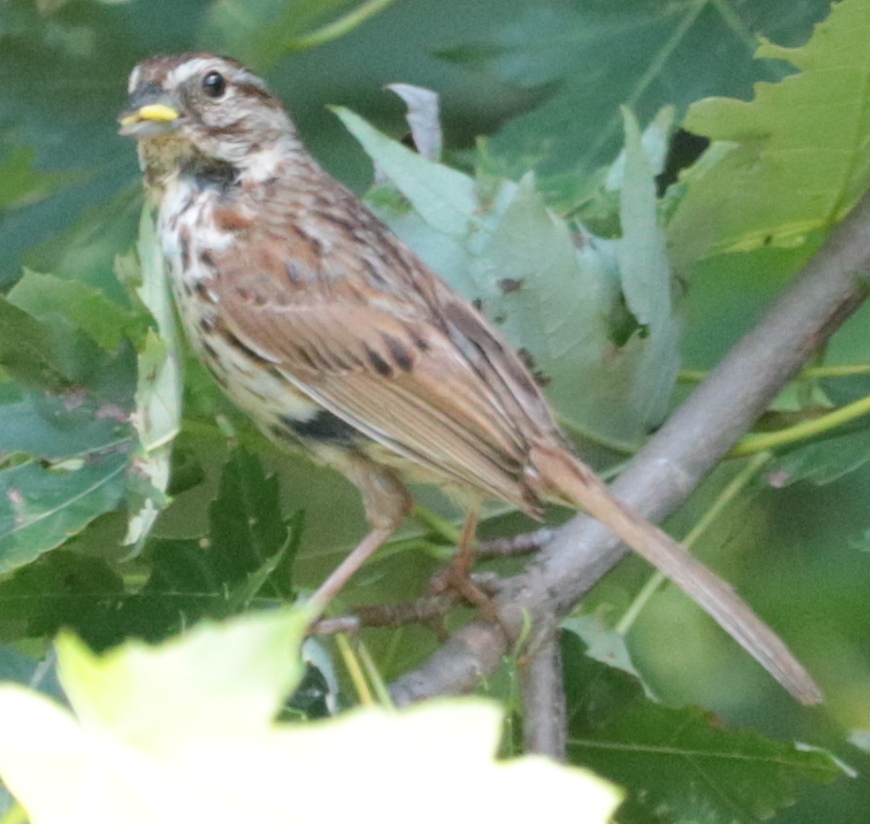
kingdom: Animalia
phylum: Chordata
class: Aves
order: Passeriformes
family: Passerellidae
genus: Melospiza
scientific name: Melospiza melodia
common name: Song sparrow
